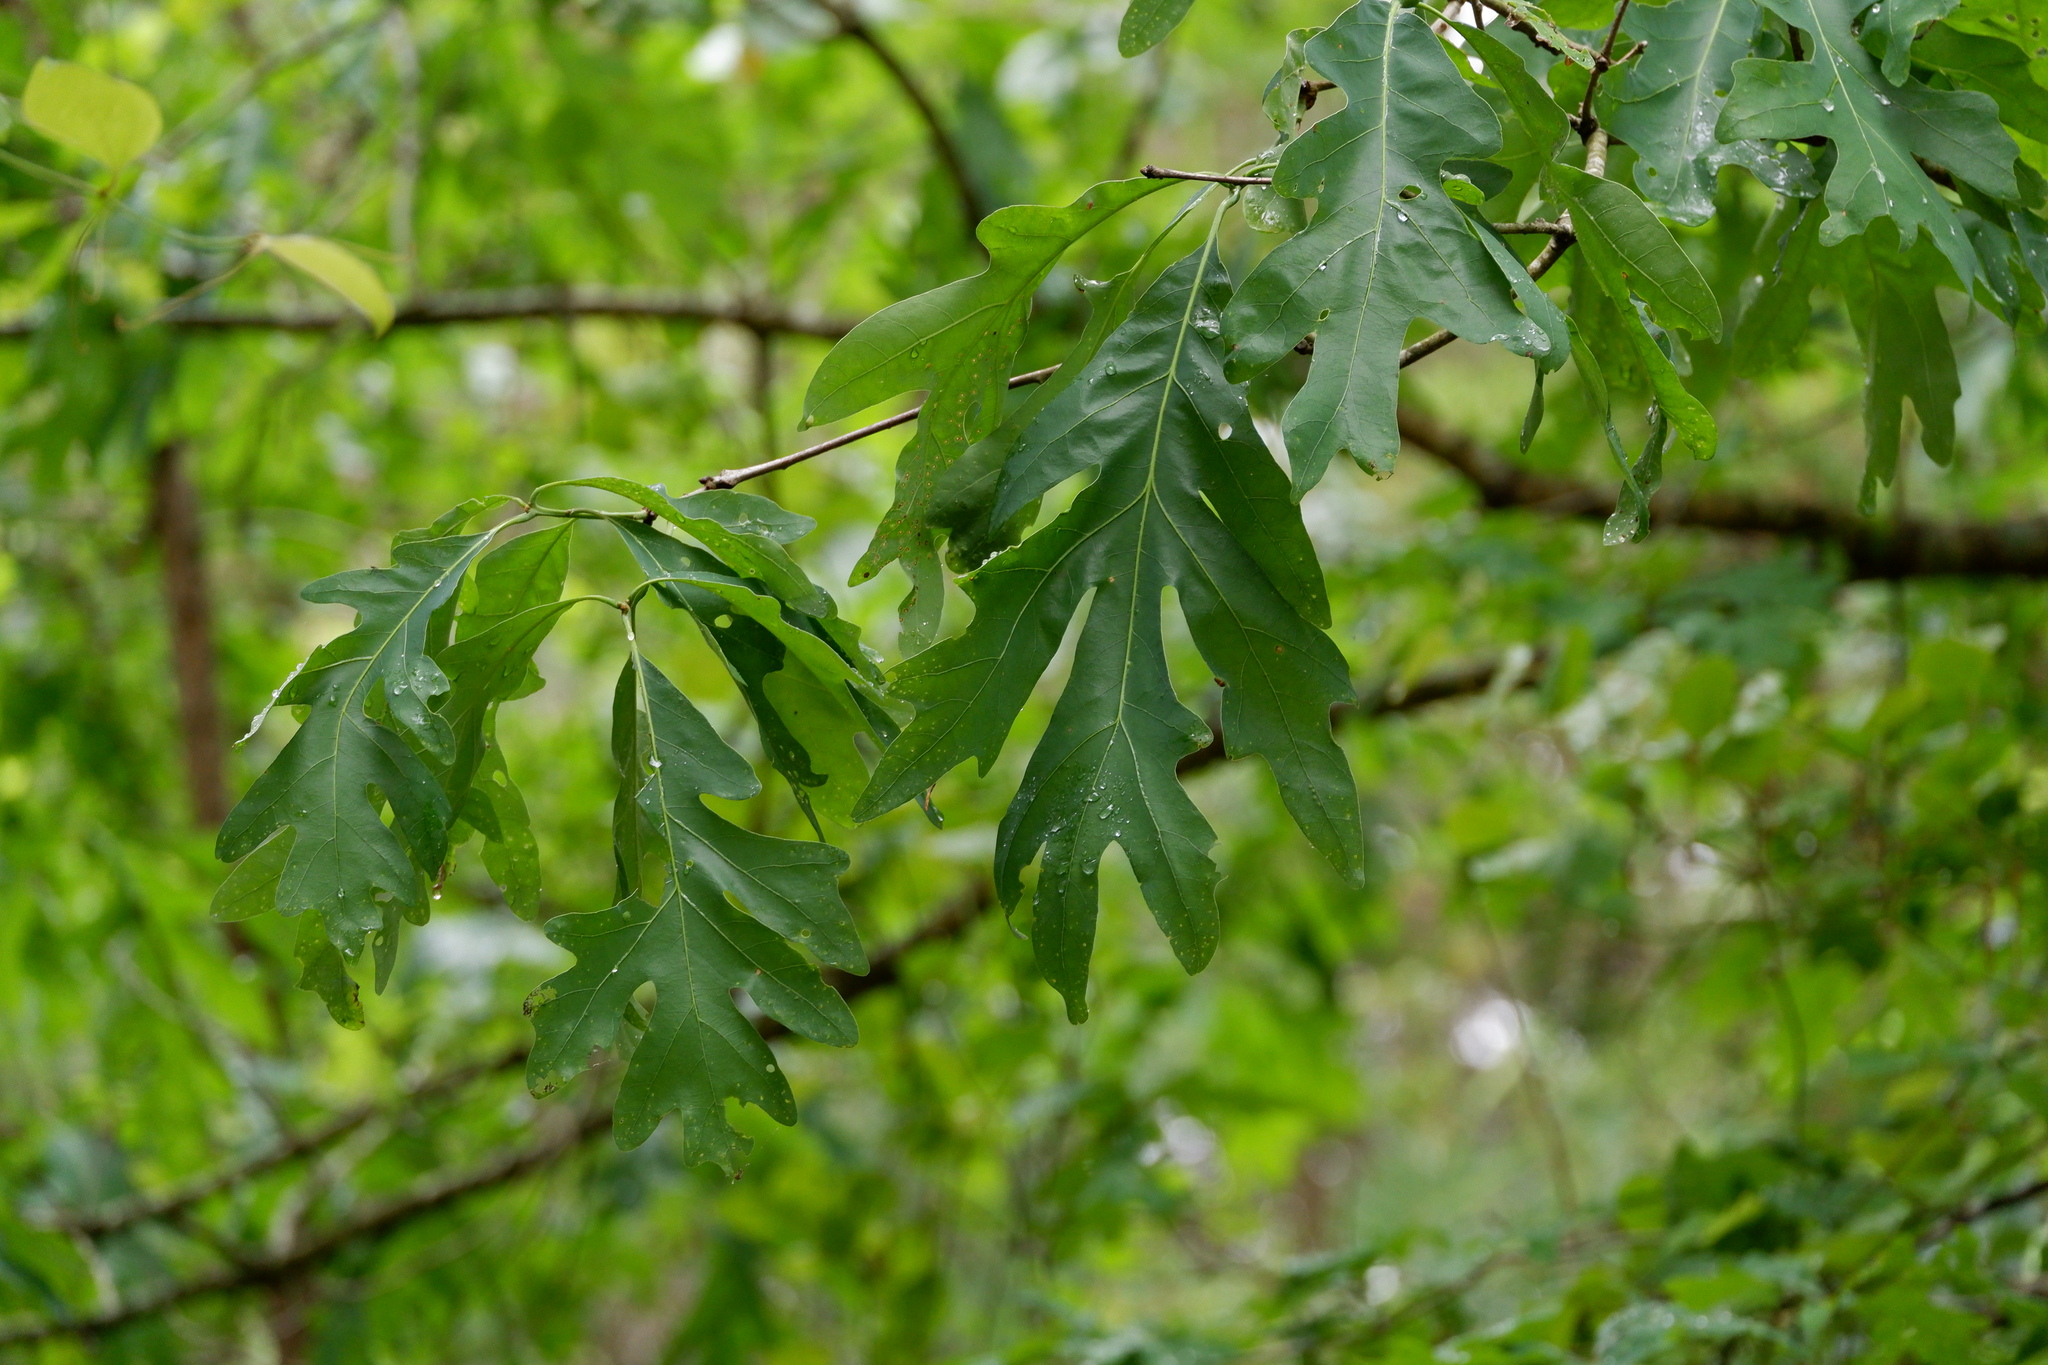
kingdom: Plantae
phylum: Tracheophyta
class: Magnoliopsida
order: Fagales
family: Fagaceae
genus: Quercus
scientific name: Quercus alba
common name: White oak
